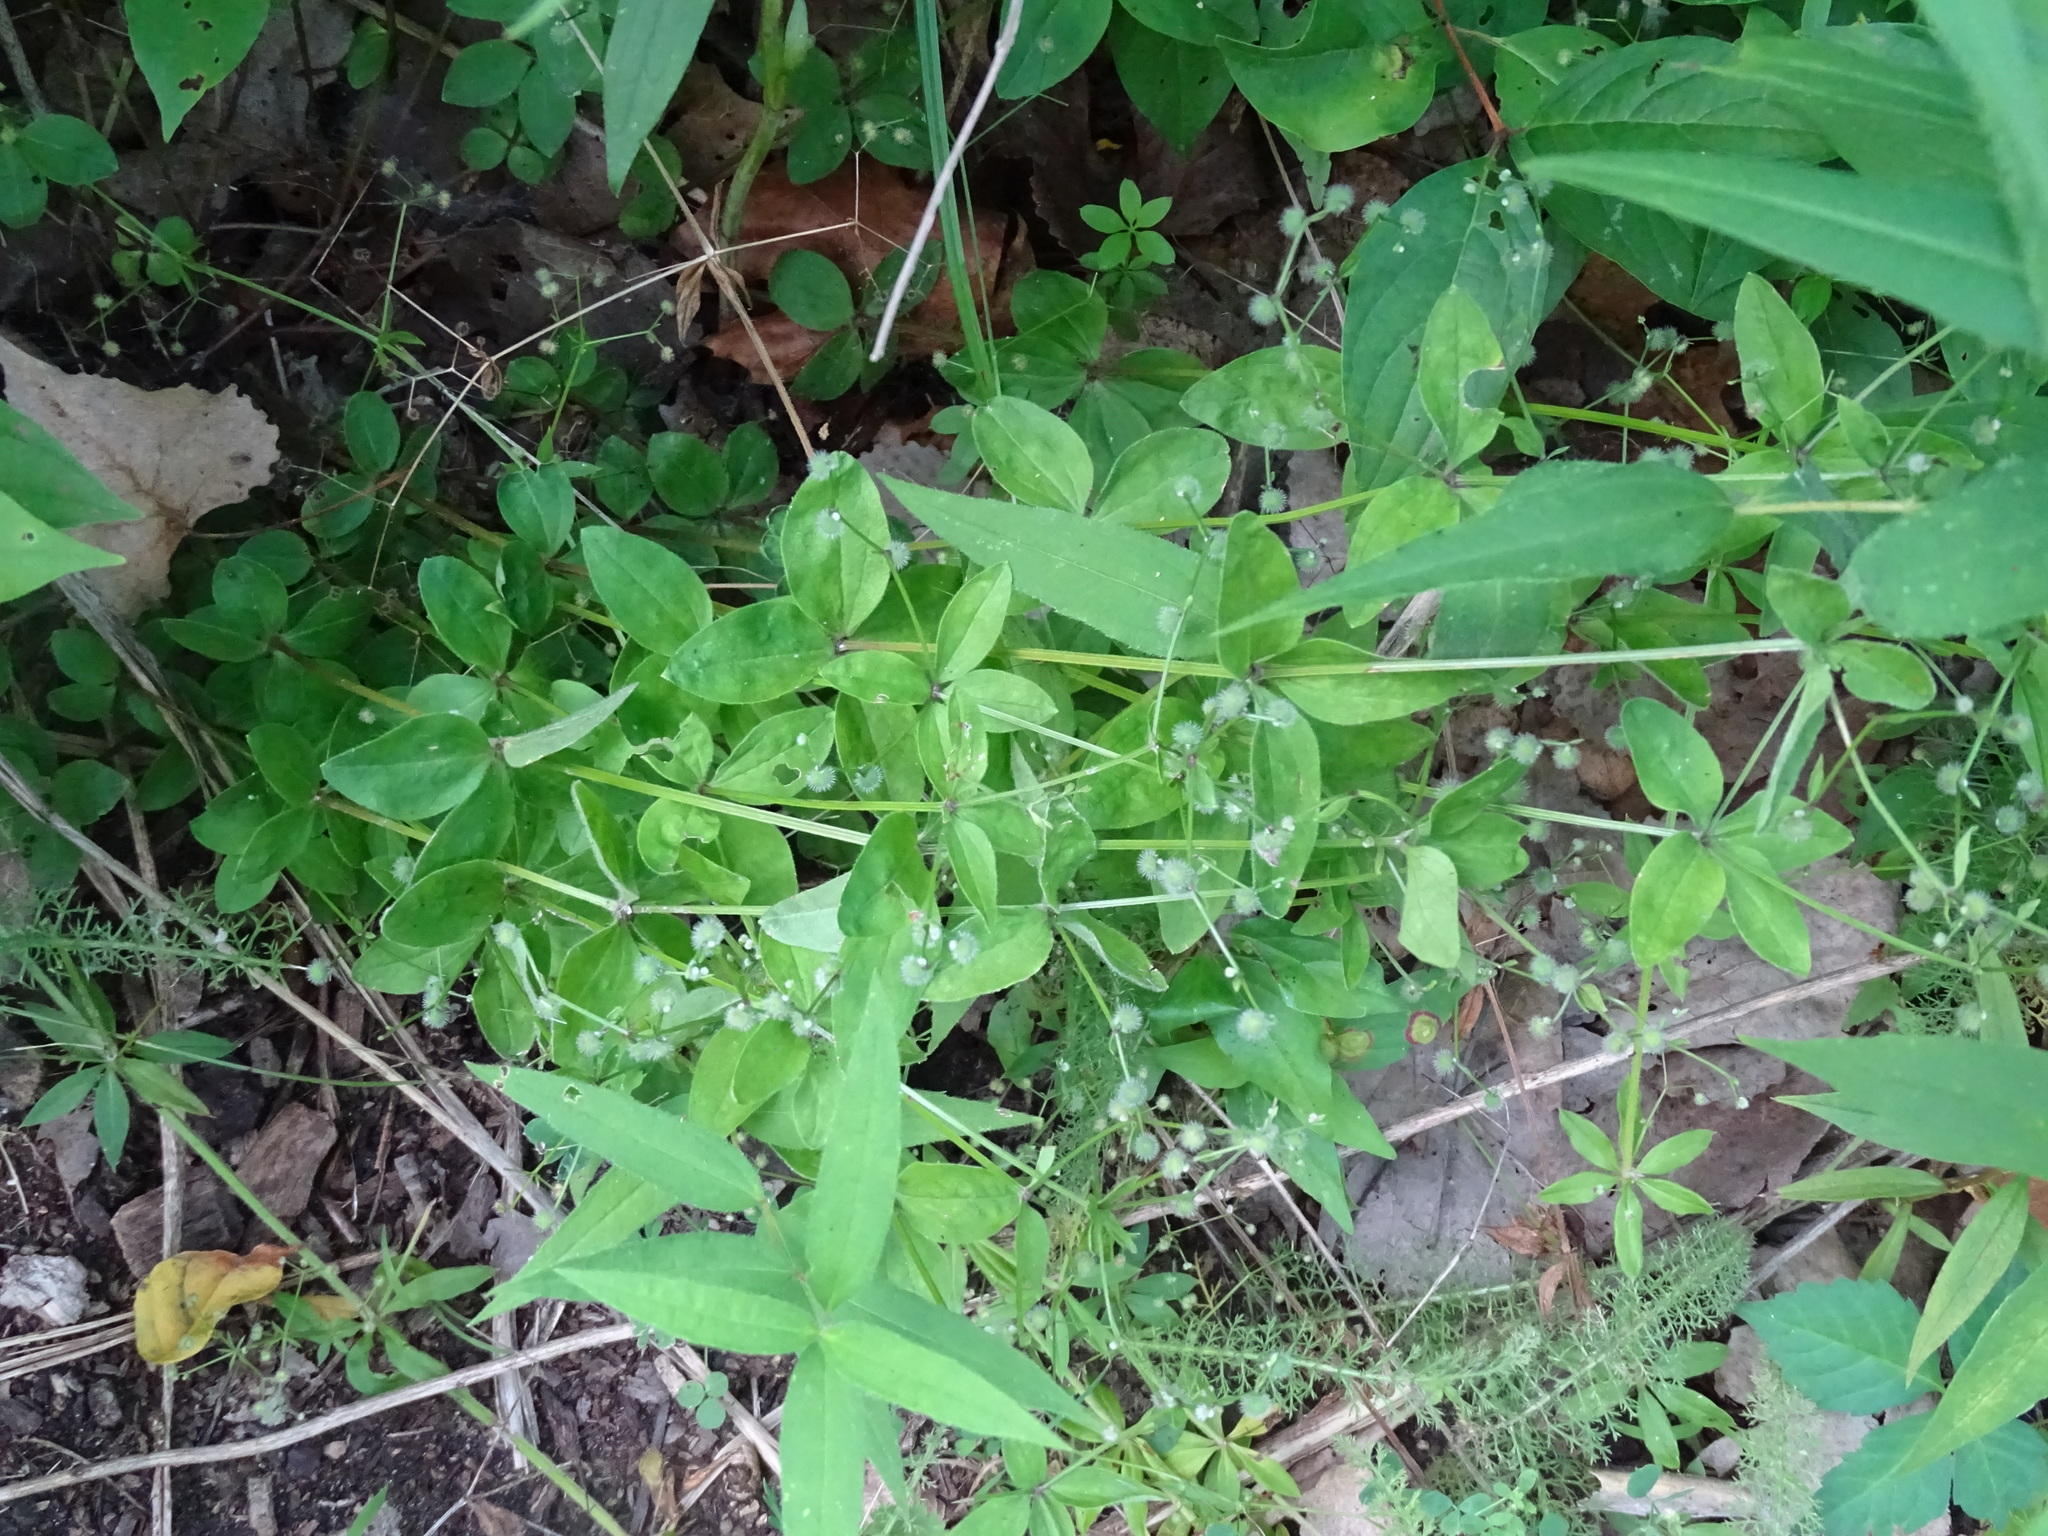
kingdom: Plantae
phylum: Tracheophyta
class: Magnoliopsida
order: Gentianales
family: Rubiaceae
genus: Galium
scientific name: Galium circaezans
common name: Forest bedstraw
